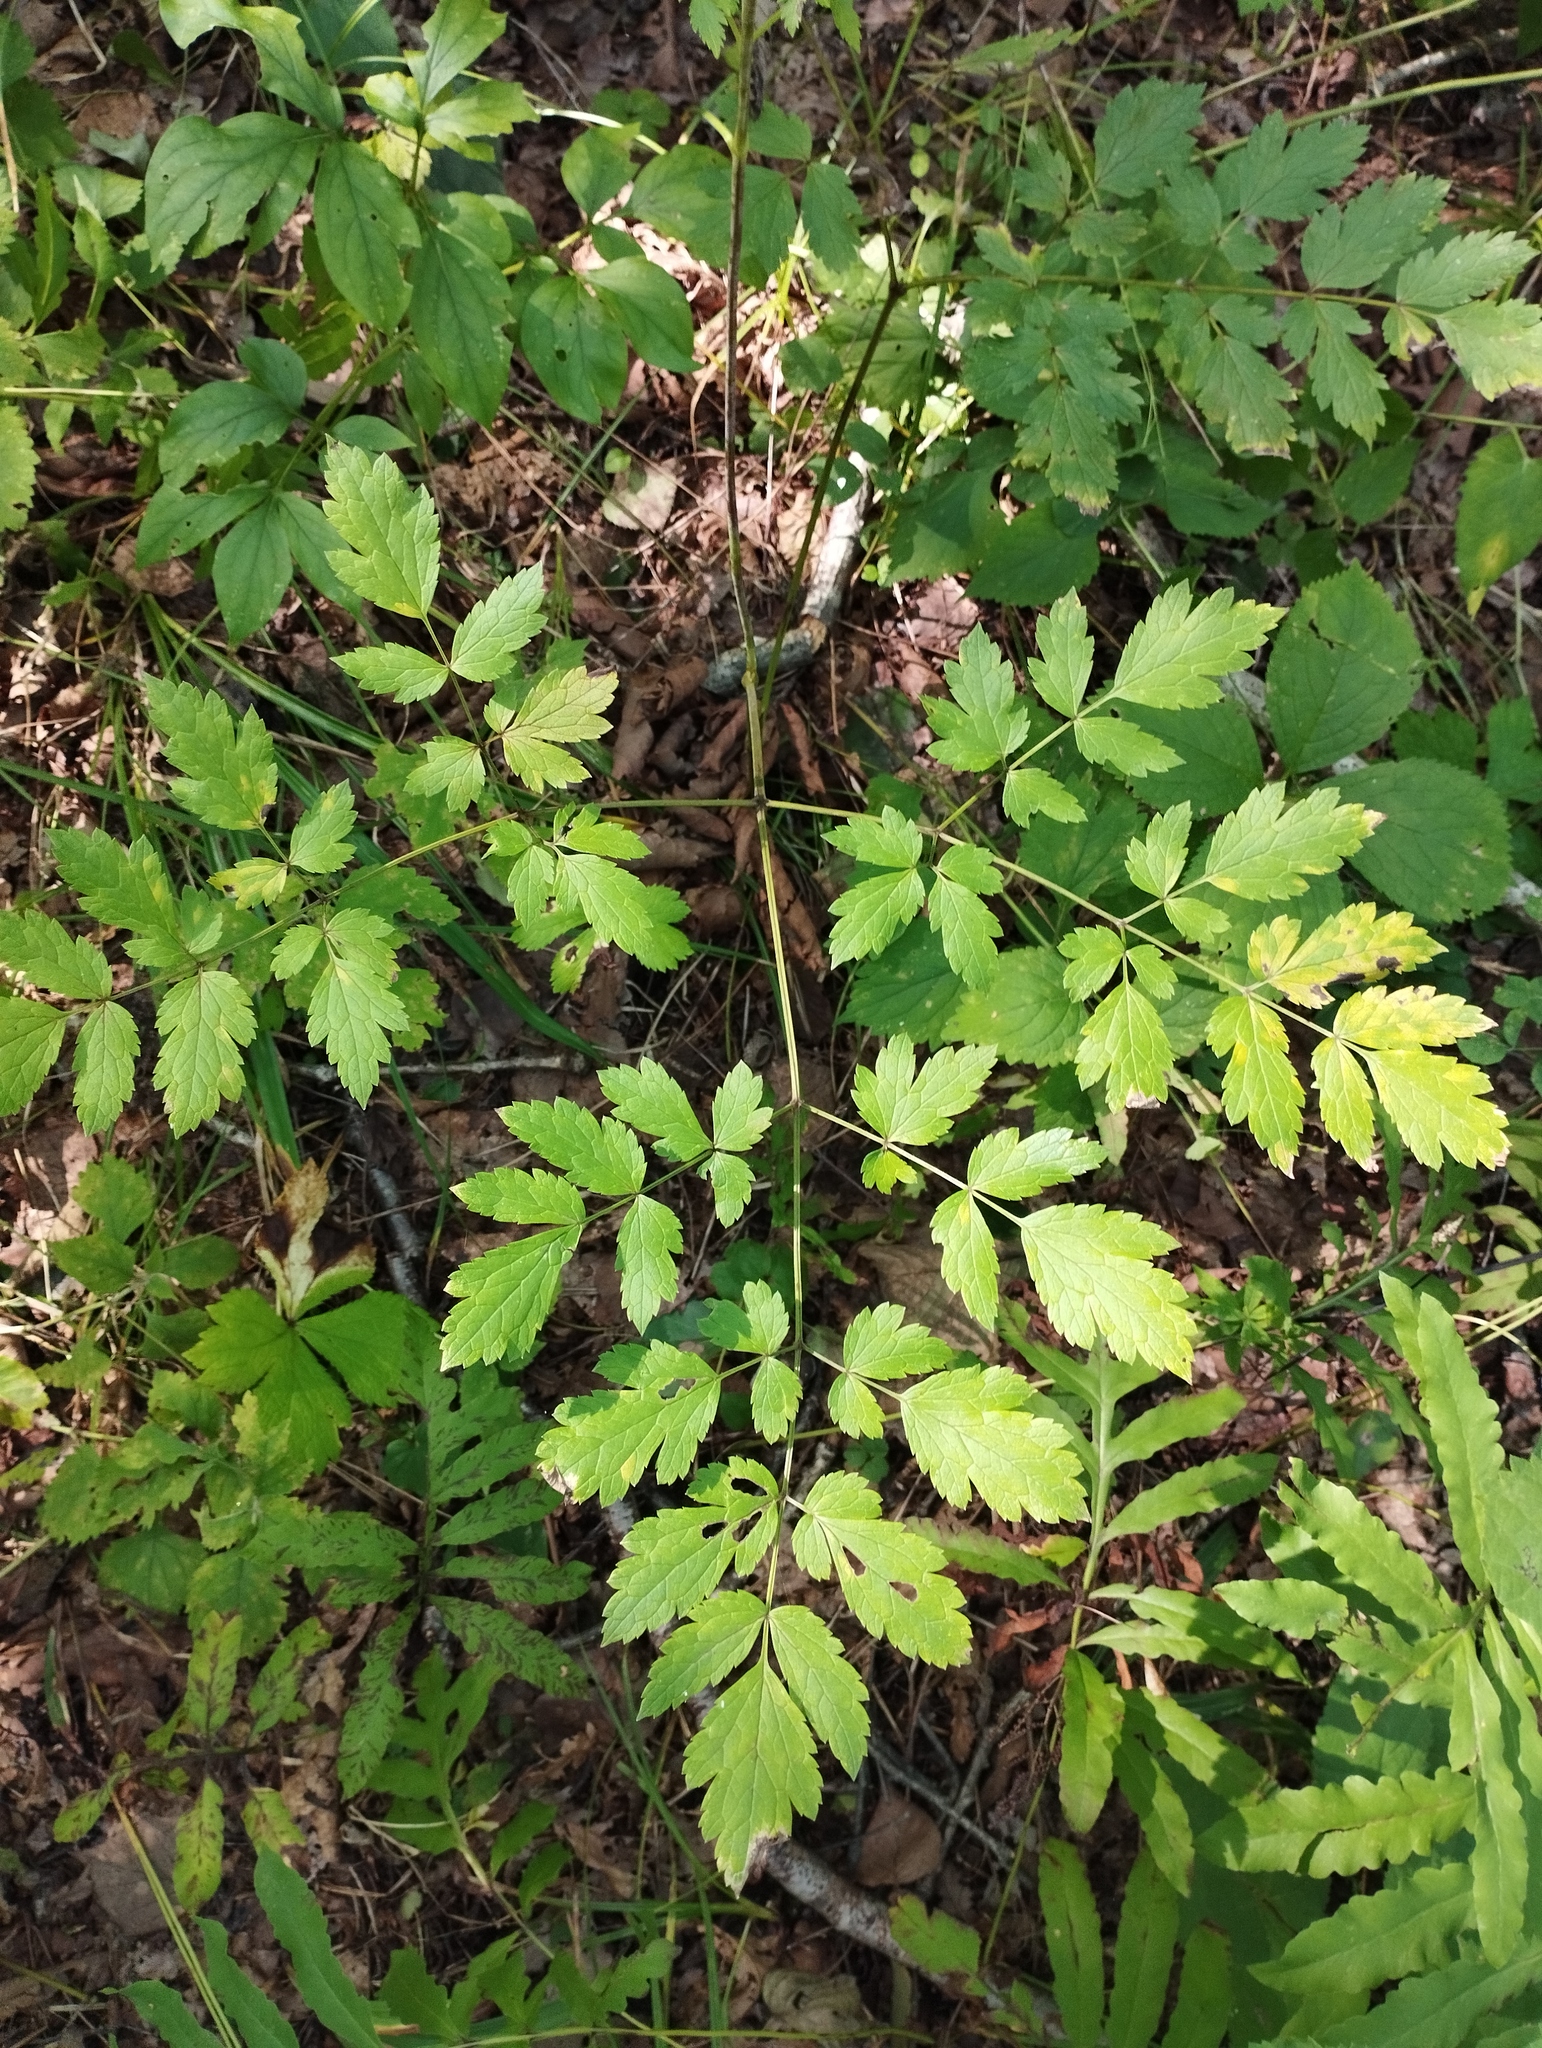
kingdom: Plantae
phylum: Tracheophyta
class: Magnoliopsida
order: Ranunculales
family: Ranunculaceae
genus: Actaea
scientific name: Actaea simplex
